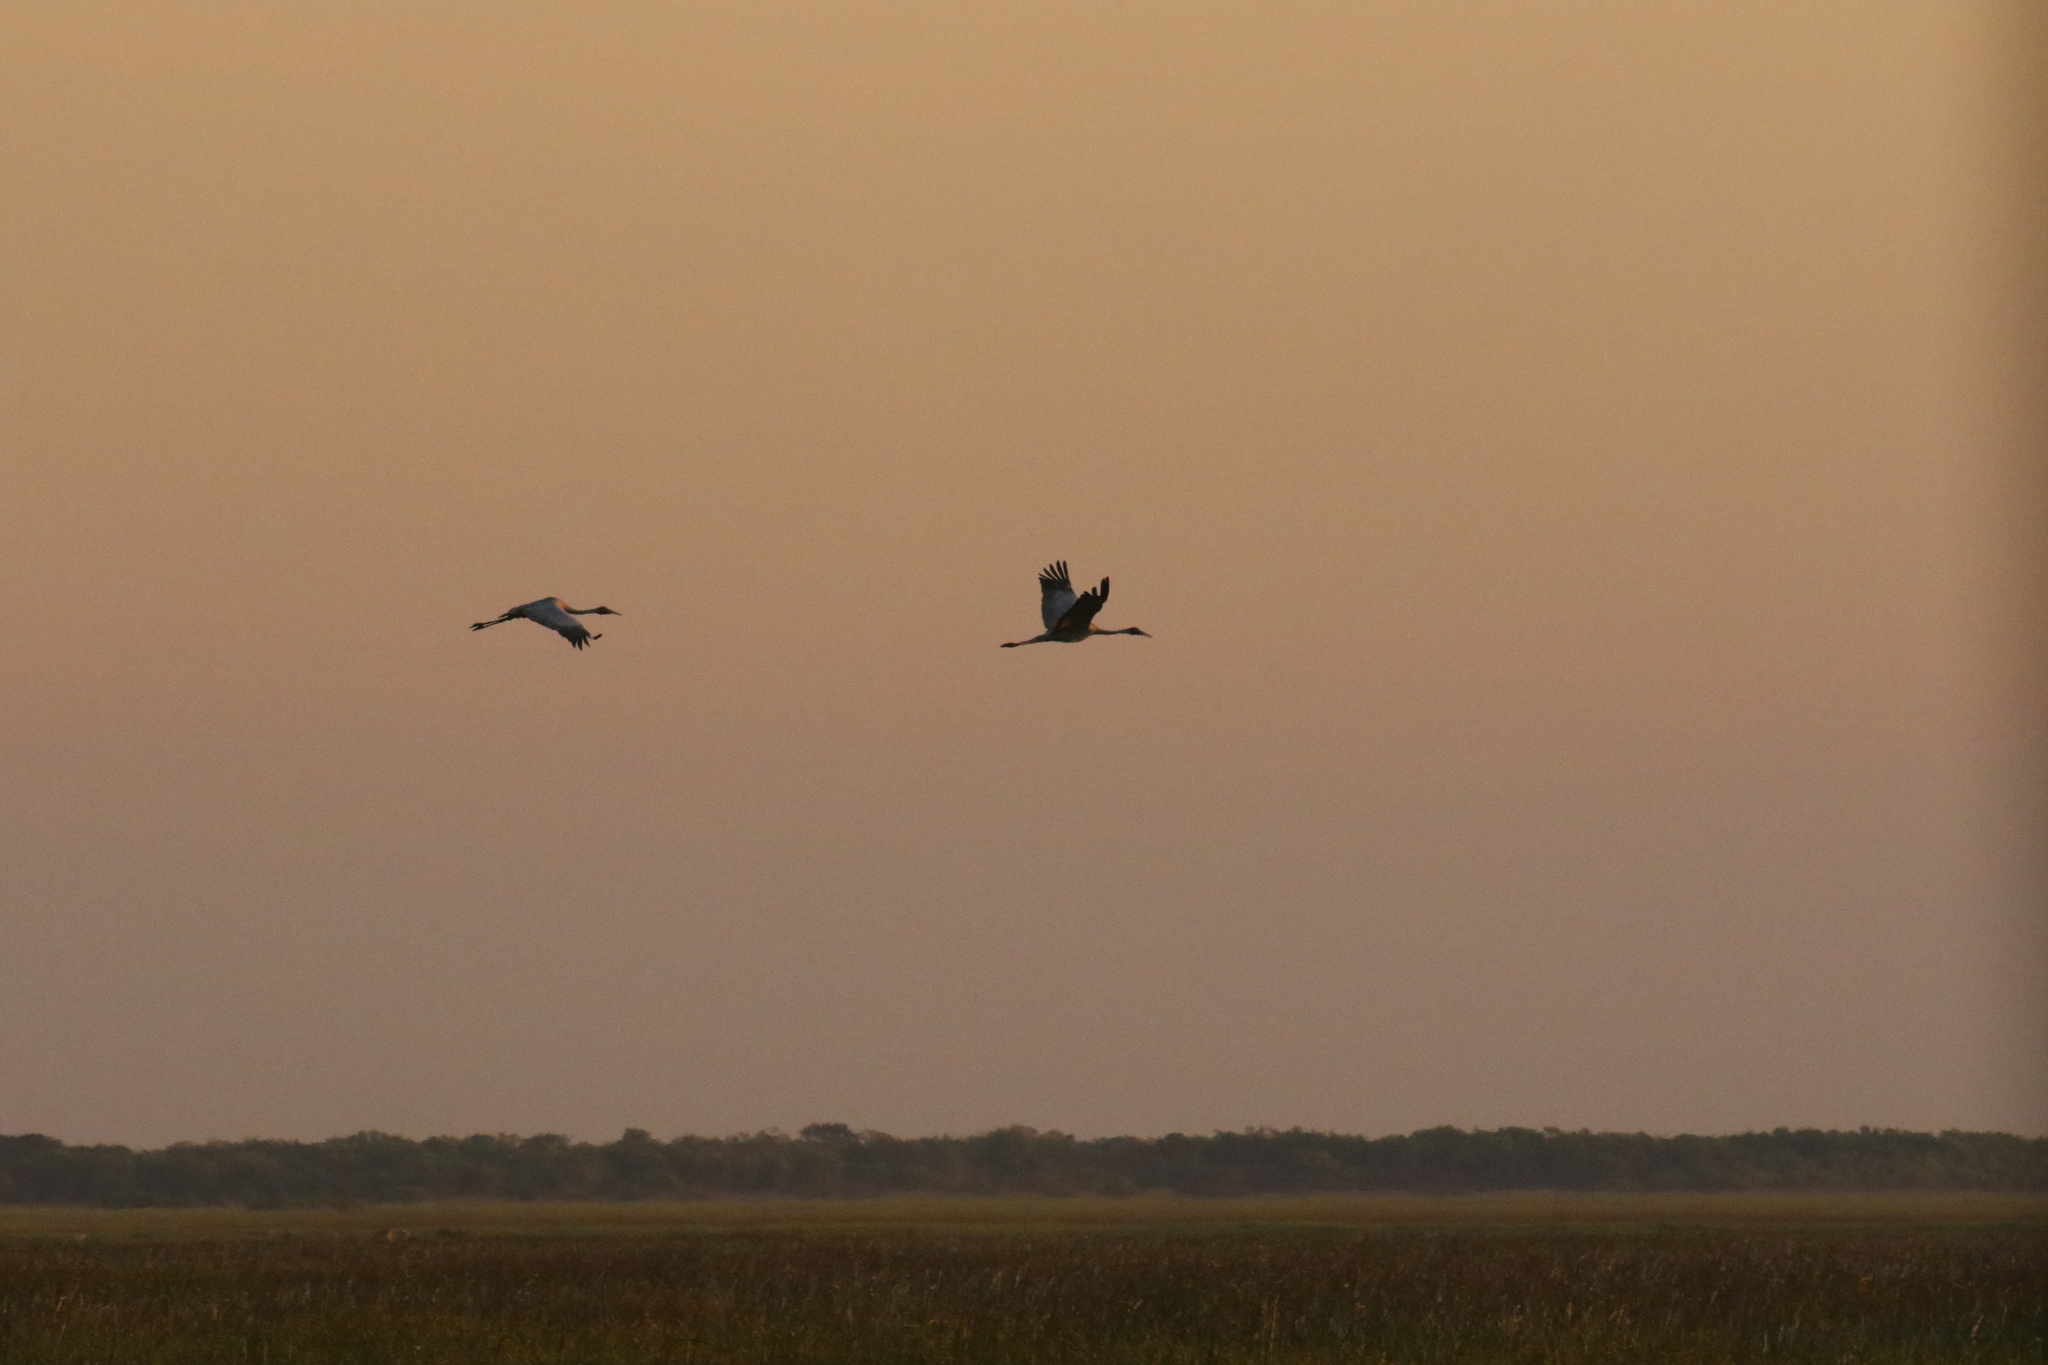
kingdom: Animalia
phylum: Chordata
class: Aves
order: Gruiformes
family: Gruidae
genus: Grus
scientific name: Grus rubicunda
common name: Brolga
